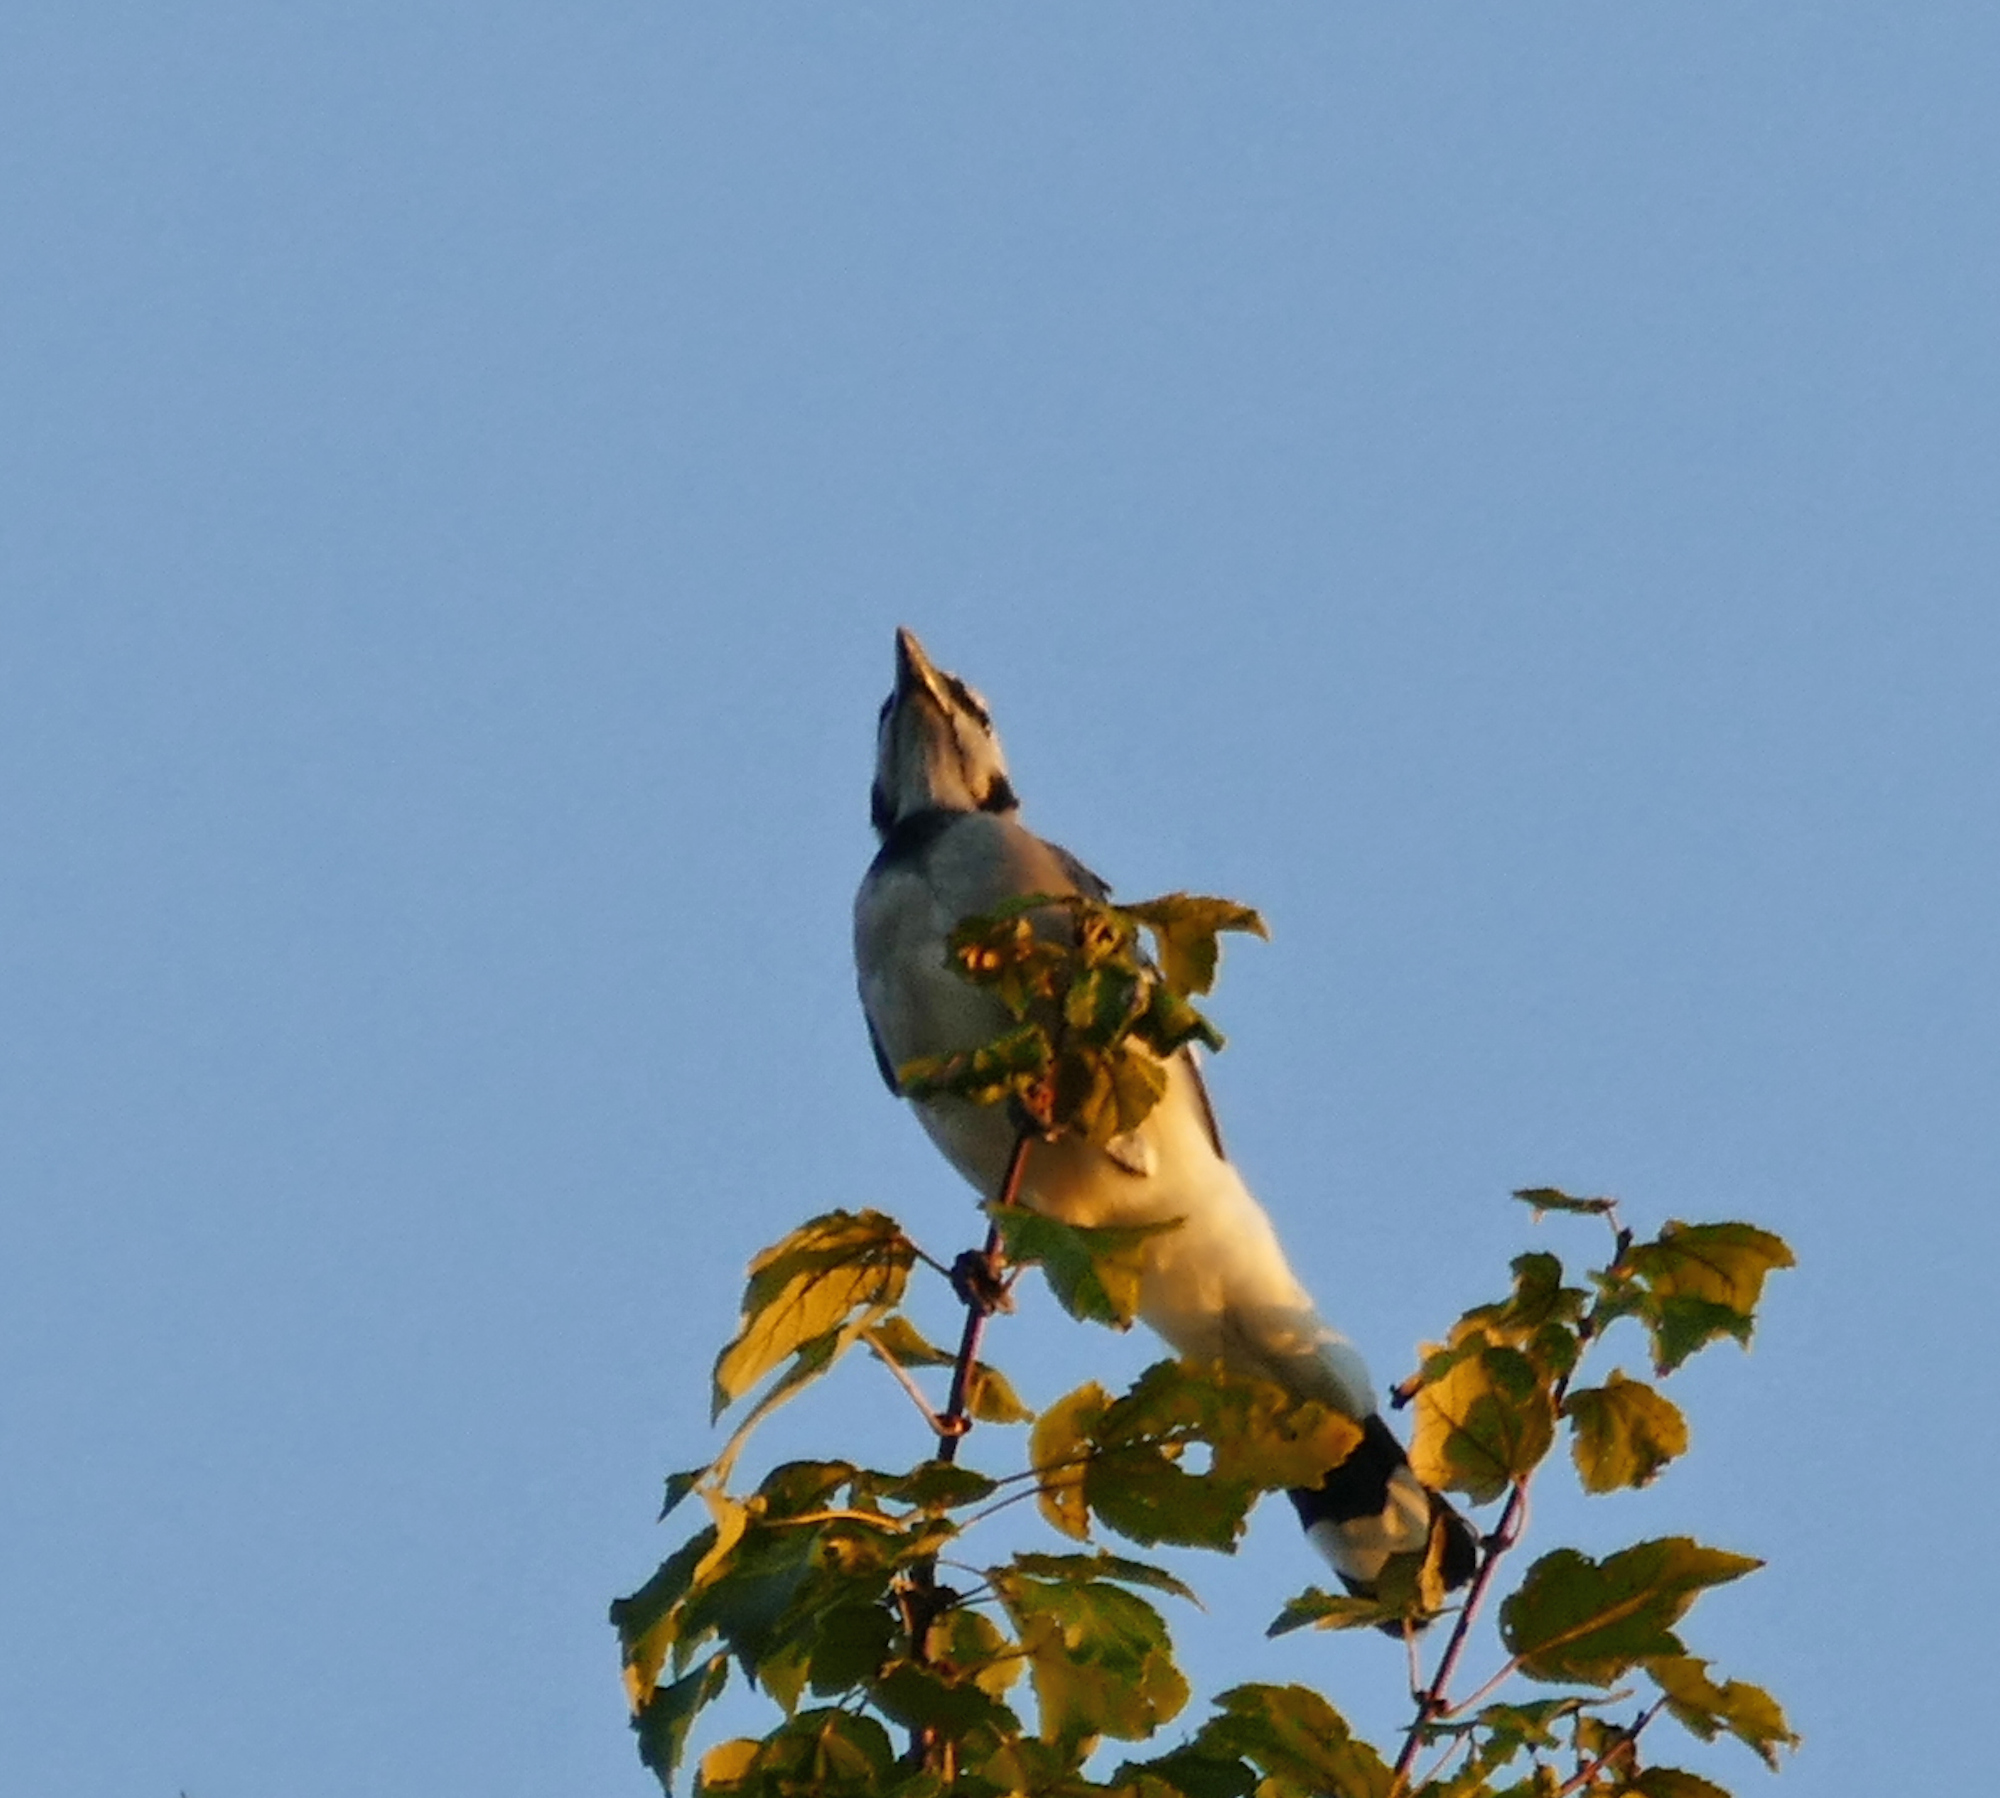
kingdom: Animalia
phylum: Chordata
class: Aves
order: Passeriformes
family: Corvidae
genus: Cyanocitta
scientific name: Cyanocitta cristata
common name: Blue jay
